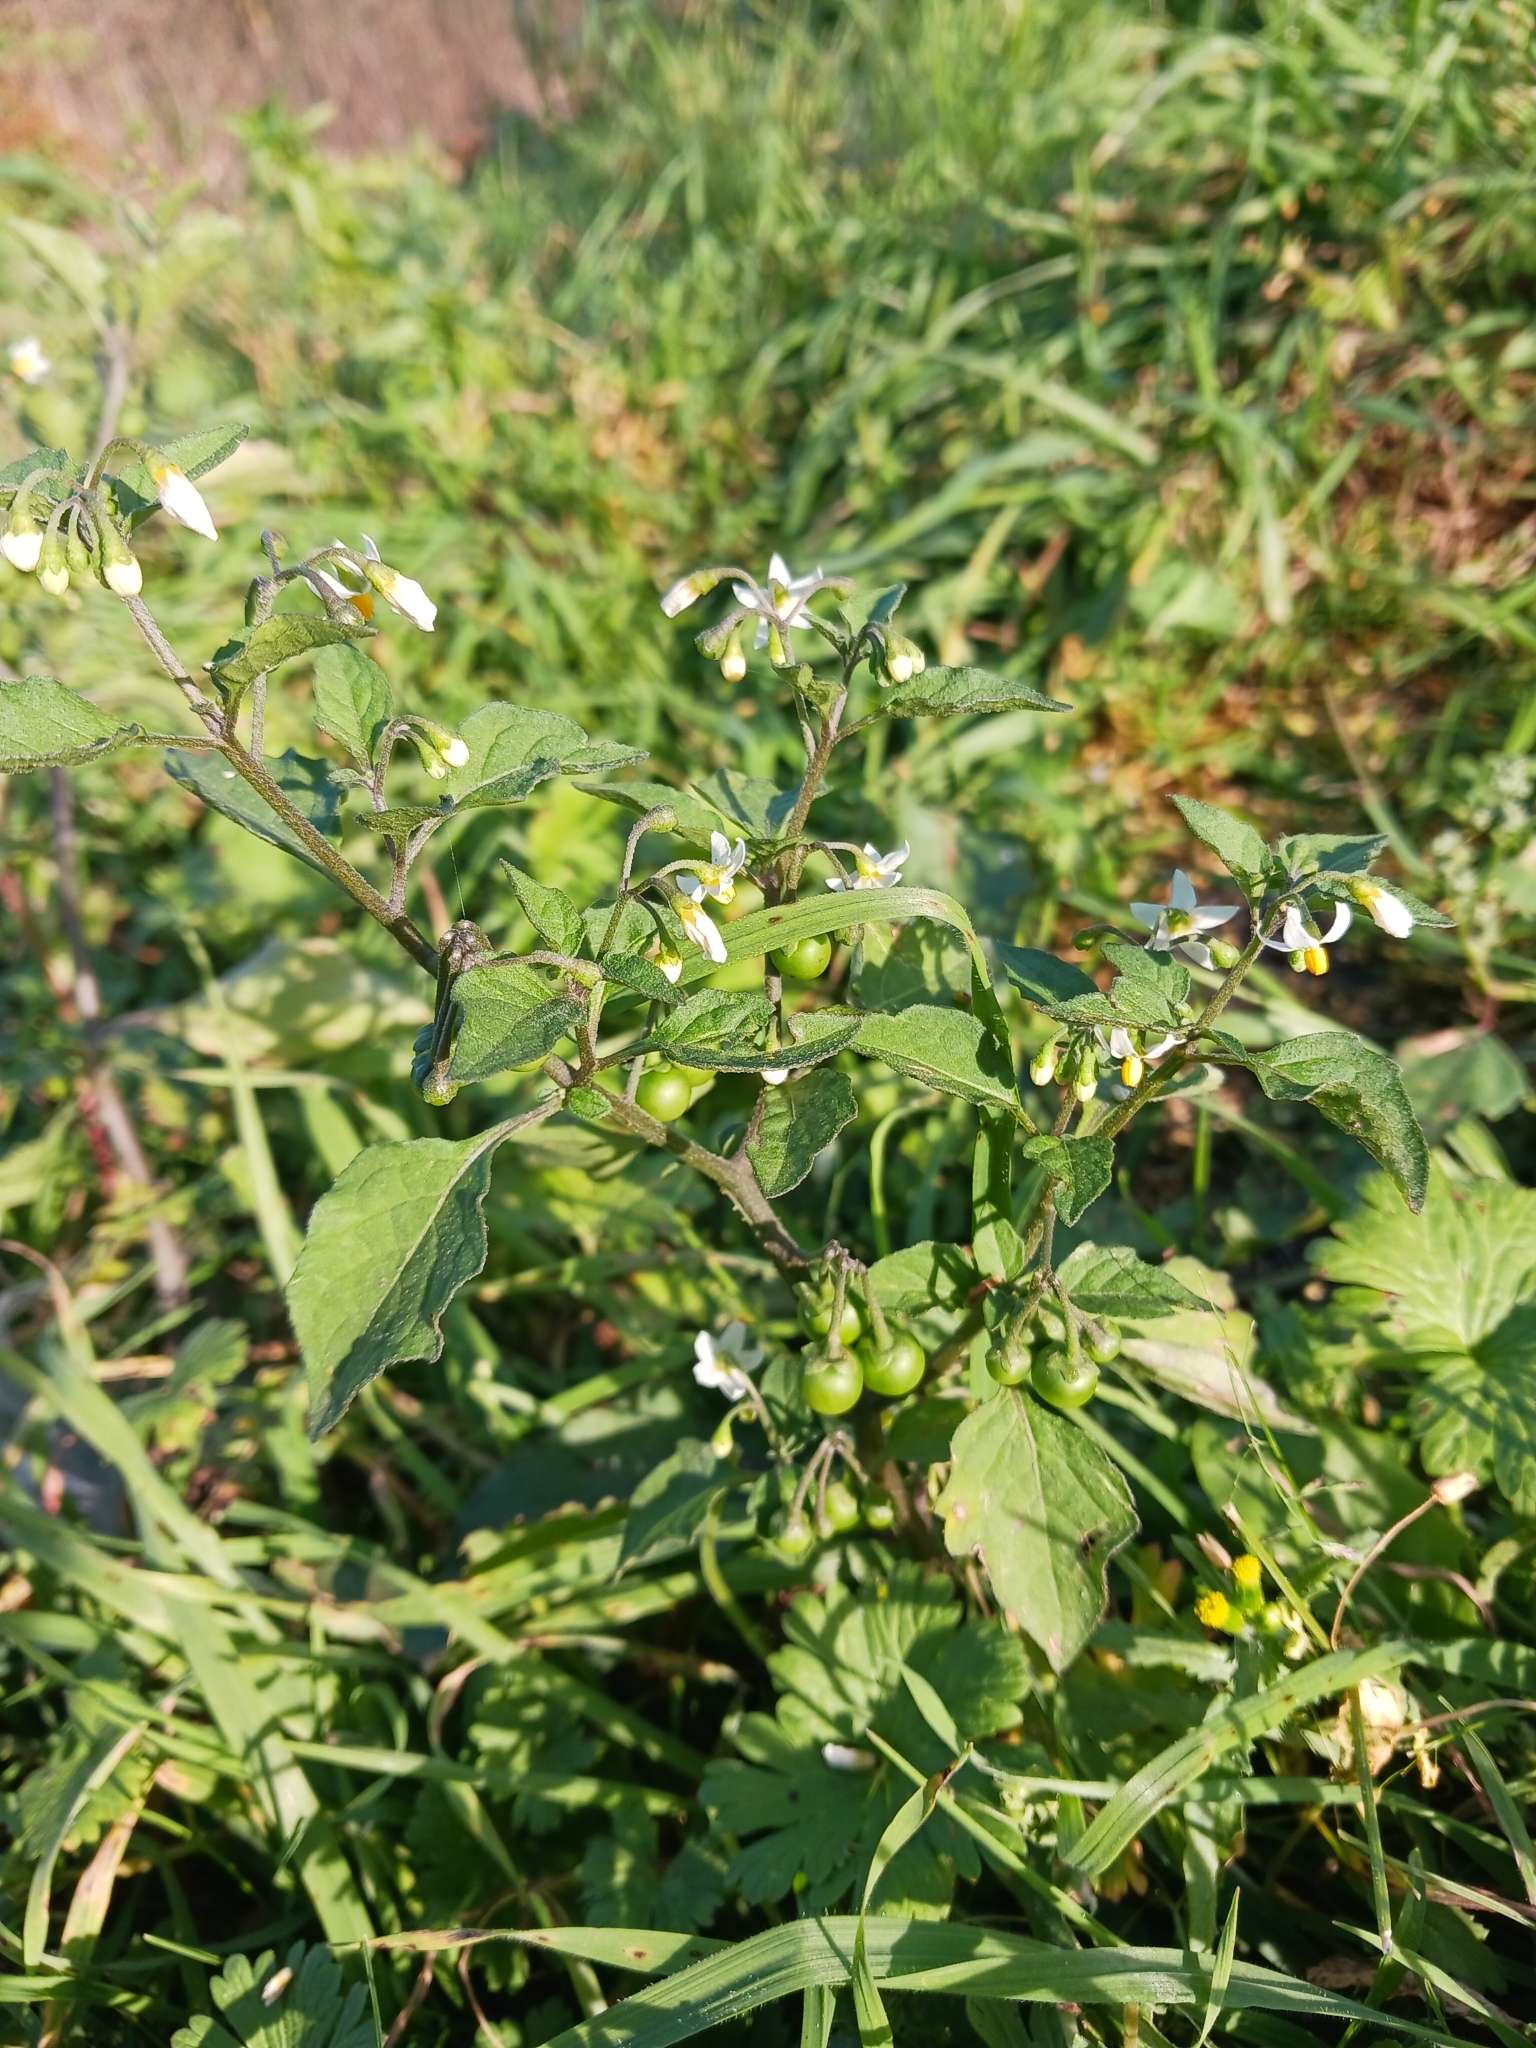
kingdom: Plantae
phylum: Tracheophyta
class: Magnoliopsida
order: Solanales
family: Solanaceae
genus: Solanum
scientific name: Solanum nigrum
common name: Black nightshade
